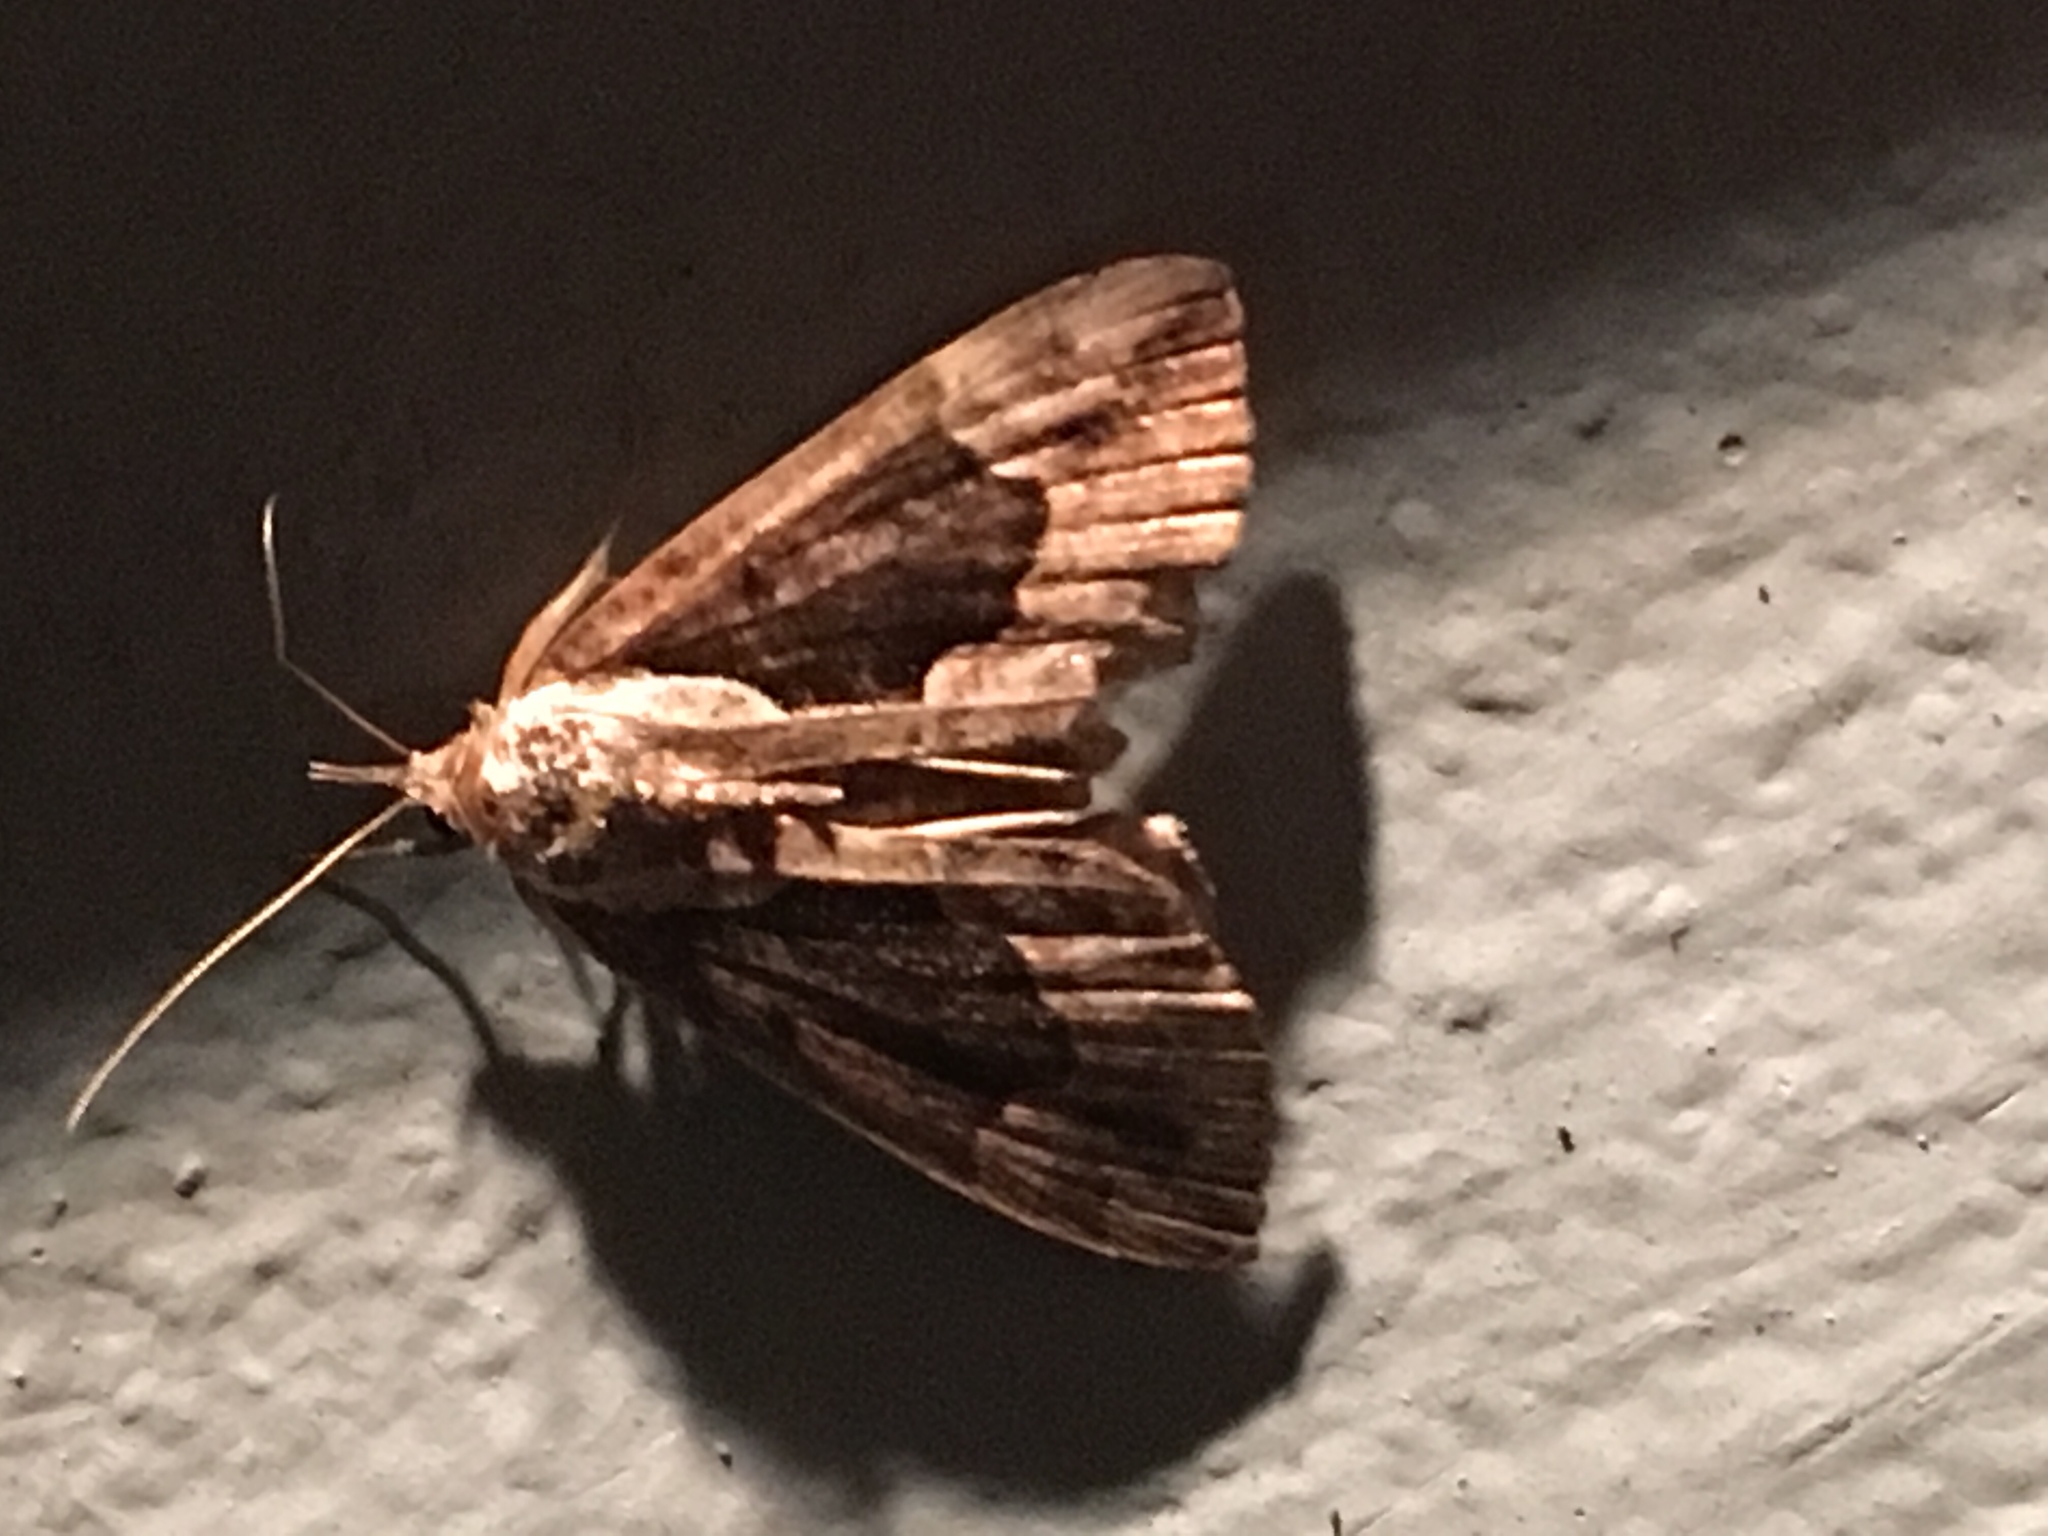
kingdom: Animalia
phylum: Arthropoda
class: Insecta
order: Lepidoptera
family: Erebidae
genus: Hypena
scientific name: Hypena baltimoralis
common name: Baltimore snout
